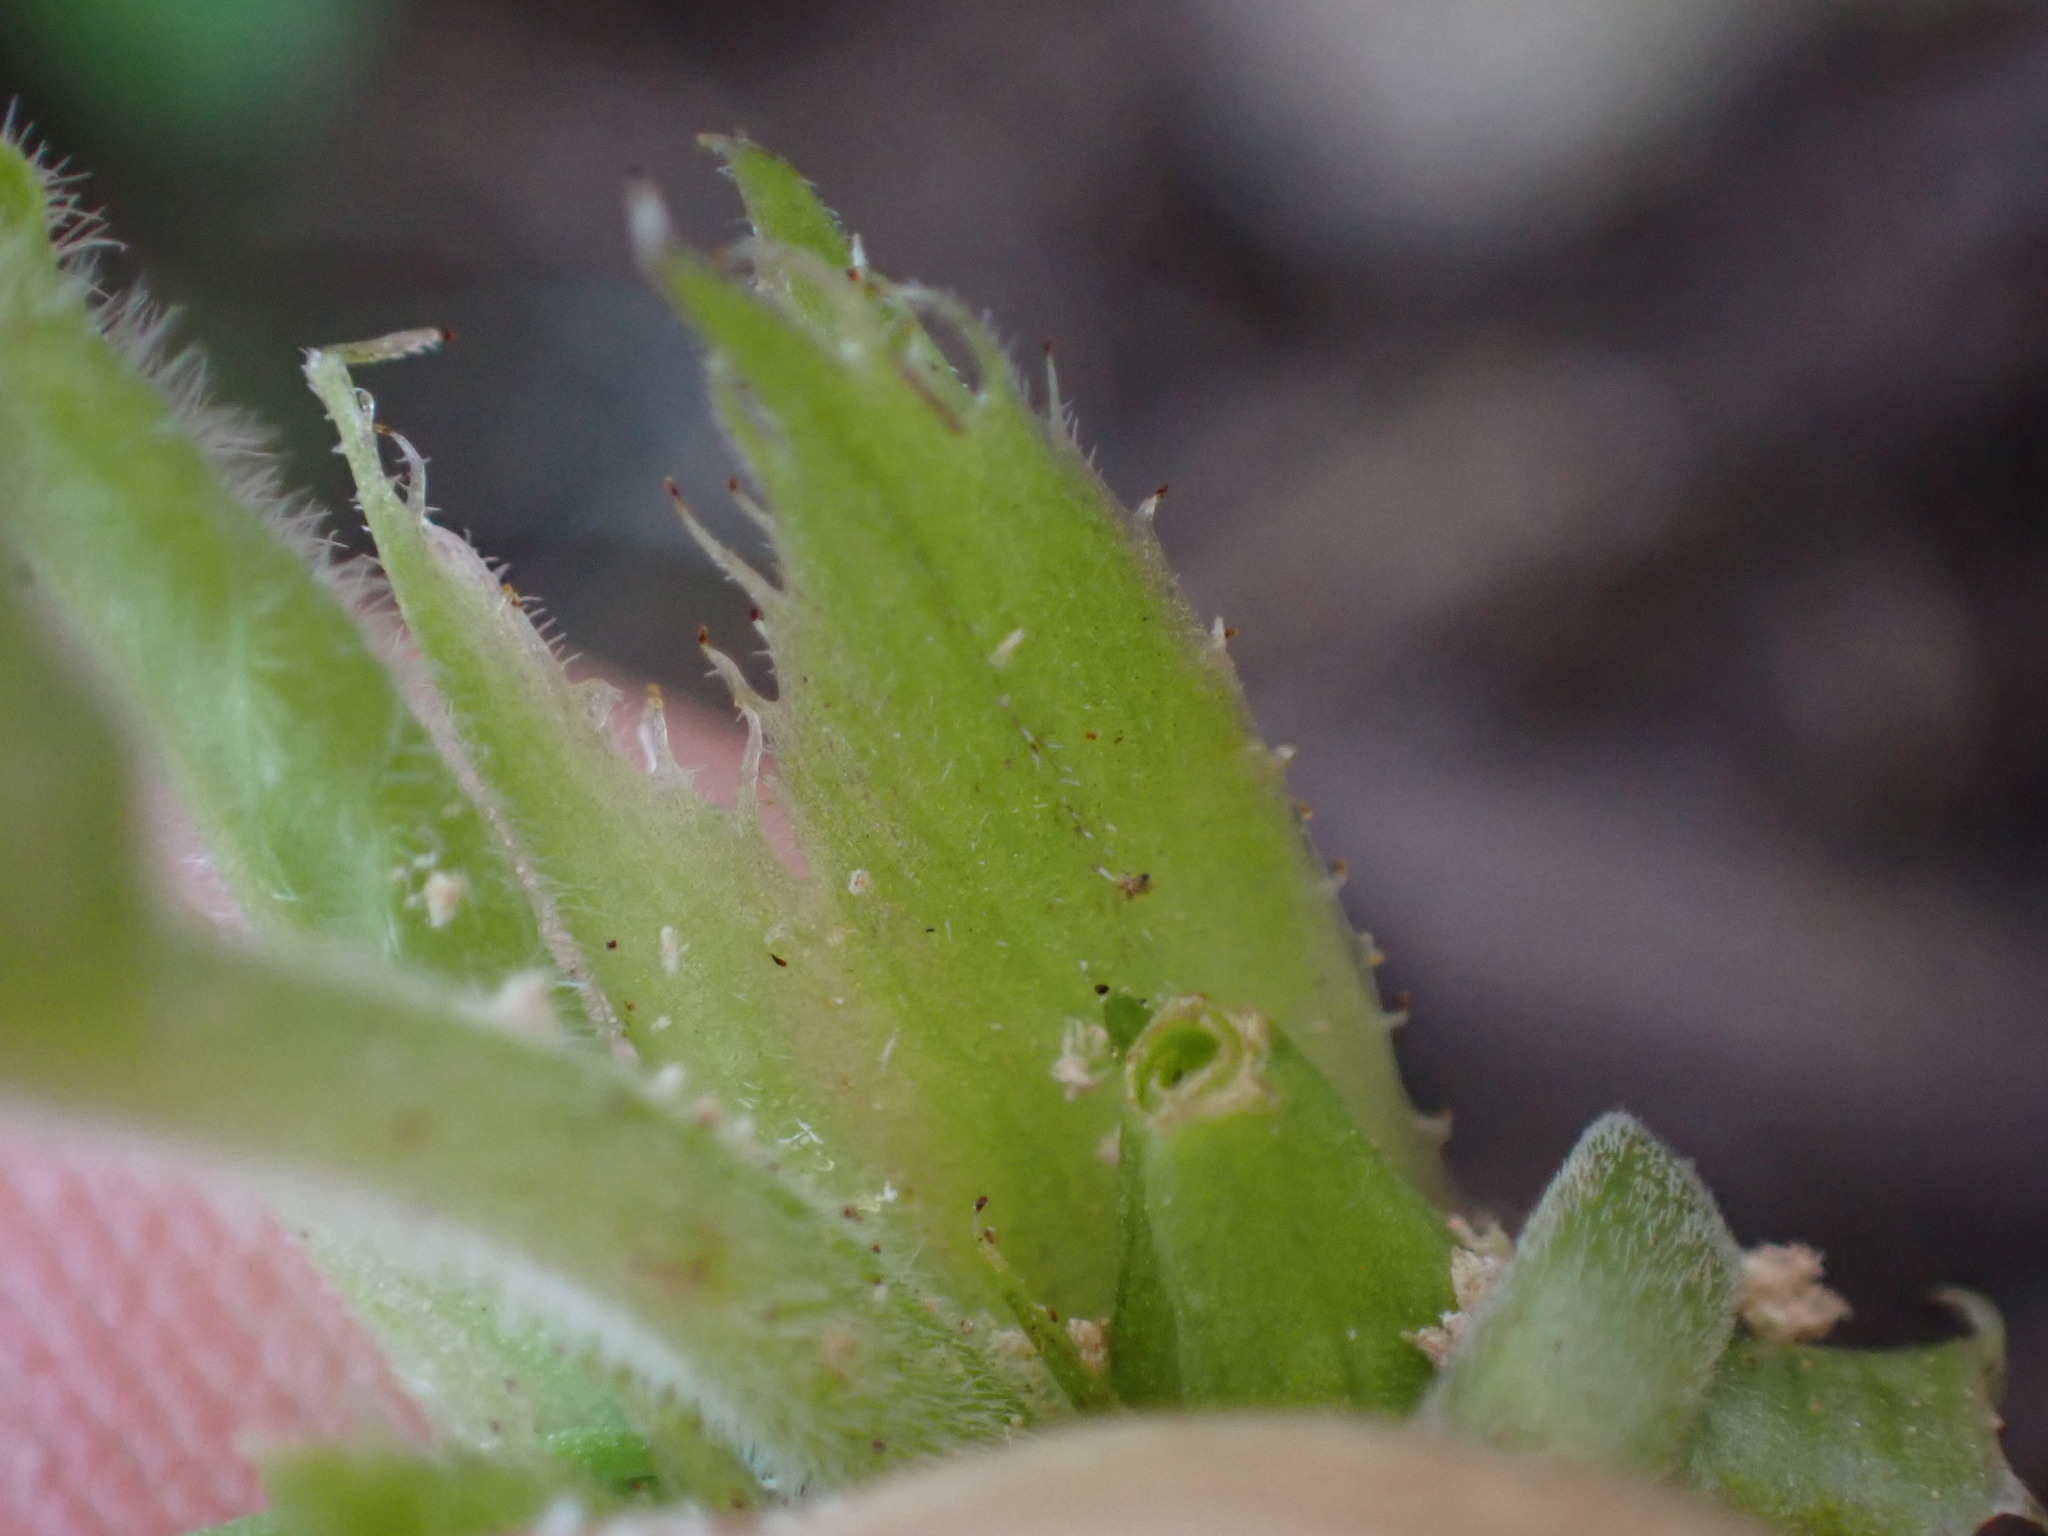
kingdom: Plantae
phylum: Tracheophyta
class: Magnoliopsida
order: Malpighiales
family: Violaceae
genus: Viola
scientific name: Viola odorata
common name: Sweet violet
